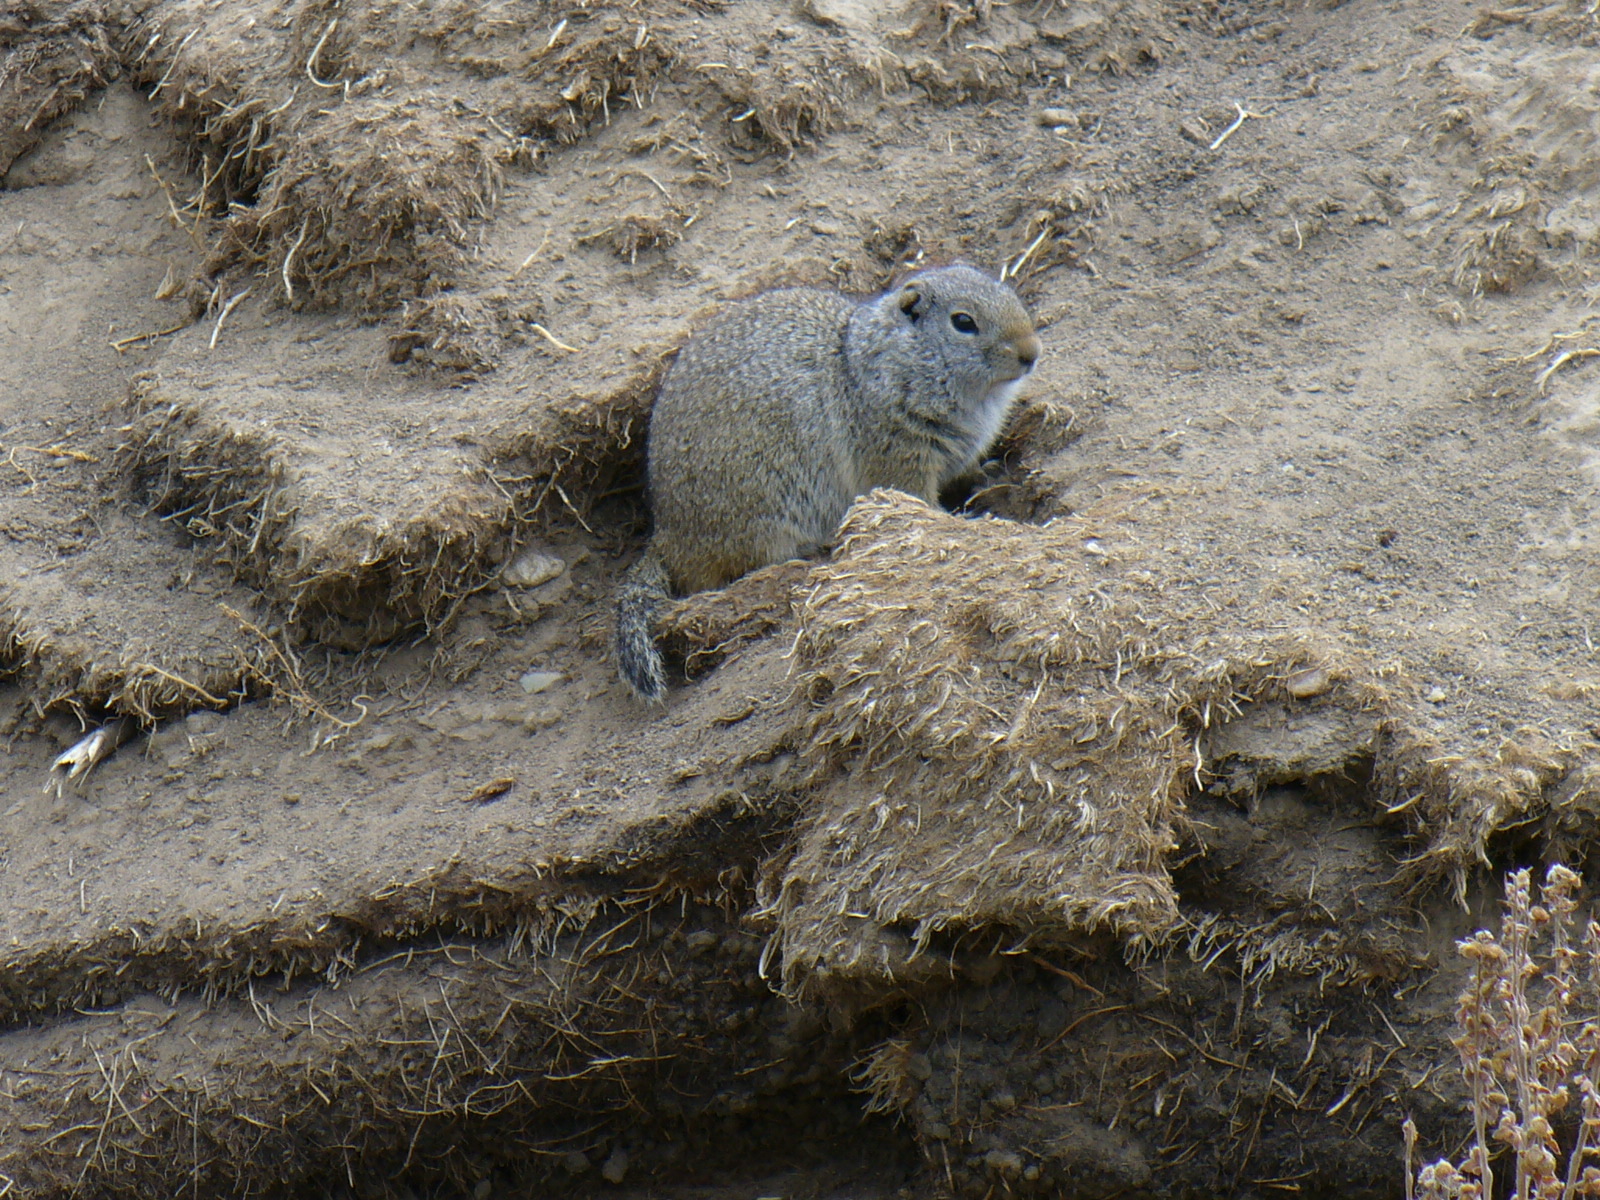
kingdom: Animalia
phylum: Chordata
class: Mammalia
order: Rodentia
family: Sciuridae
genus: Urocitellus
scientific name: Urocitellus armatus
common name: Uinta ground squirrel
